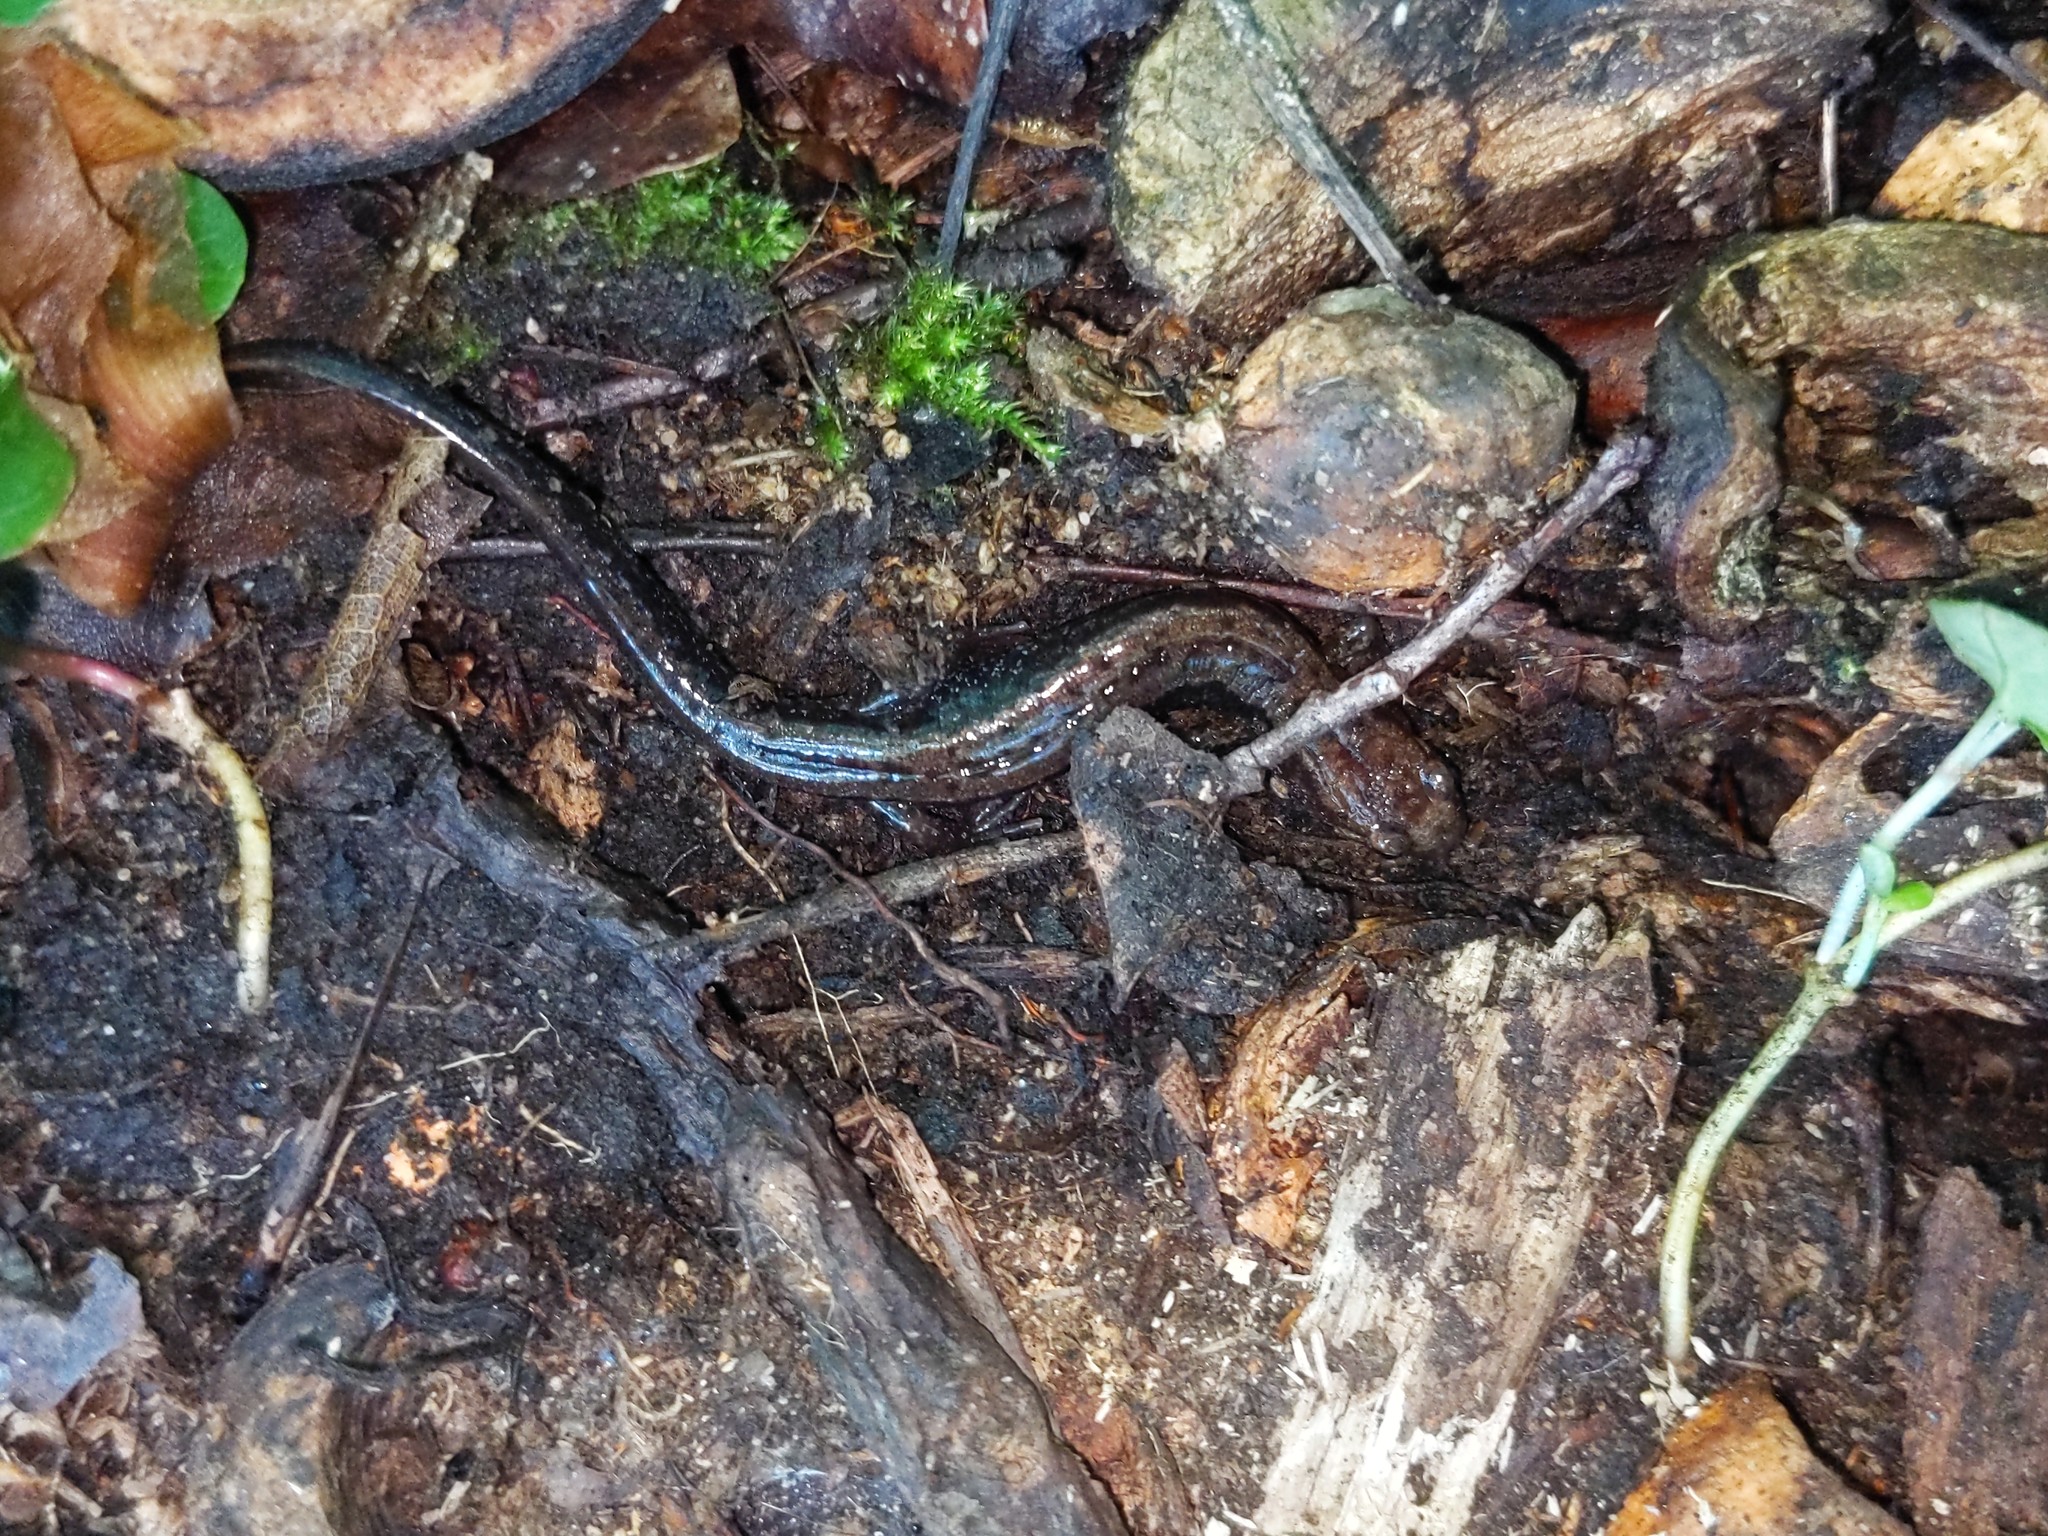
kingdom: Animalia
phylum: Chordata
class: Amphibia
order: Caudata
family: Plethodontidae
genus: Desmognathus
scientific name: Desmognathus ochrophaeus
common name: Allegheny mountain dusky salamander
